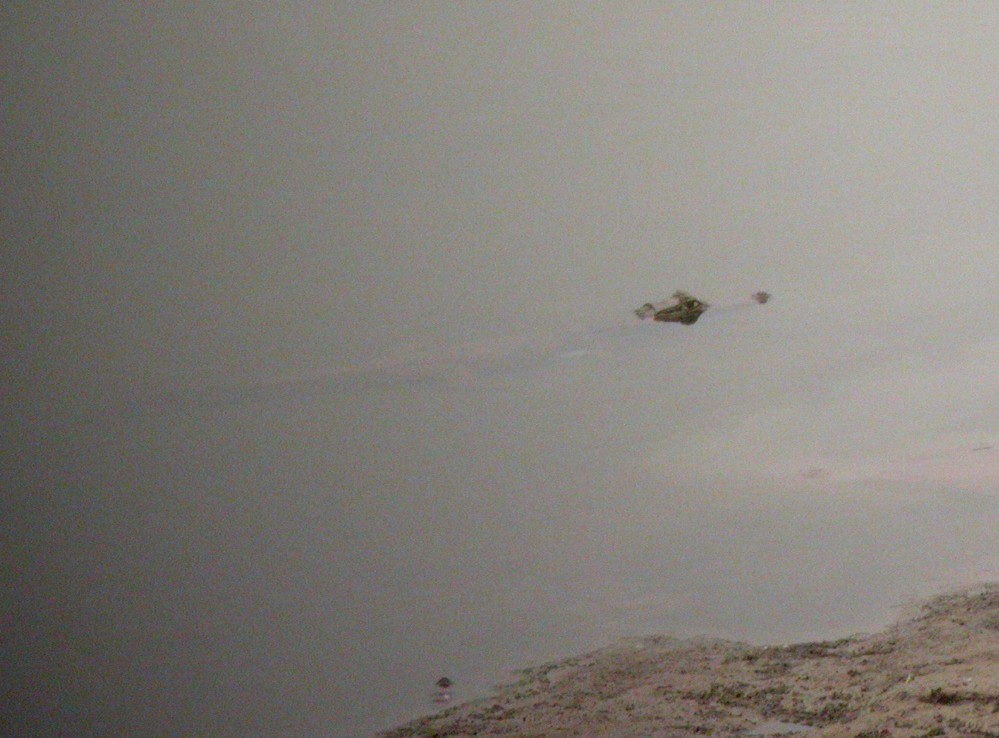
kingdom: Animalia
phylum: Chordata
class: Crocodylia
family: Alligatoridae
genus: Caiman
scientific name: Caiman crocodilus
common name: Common caiman
